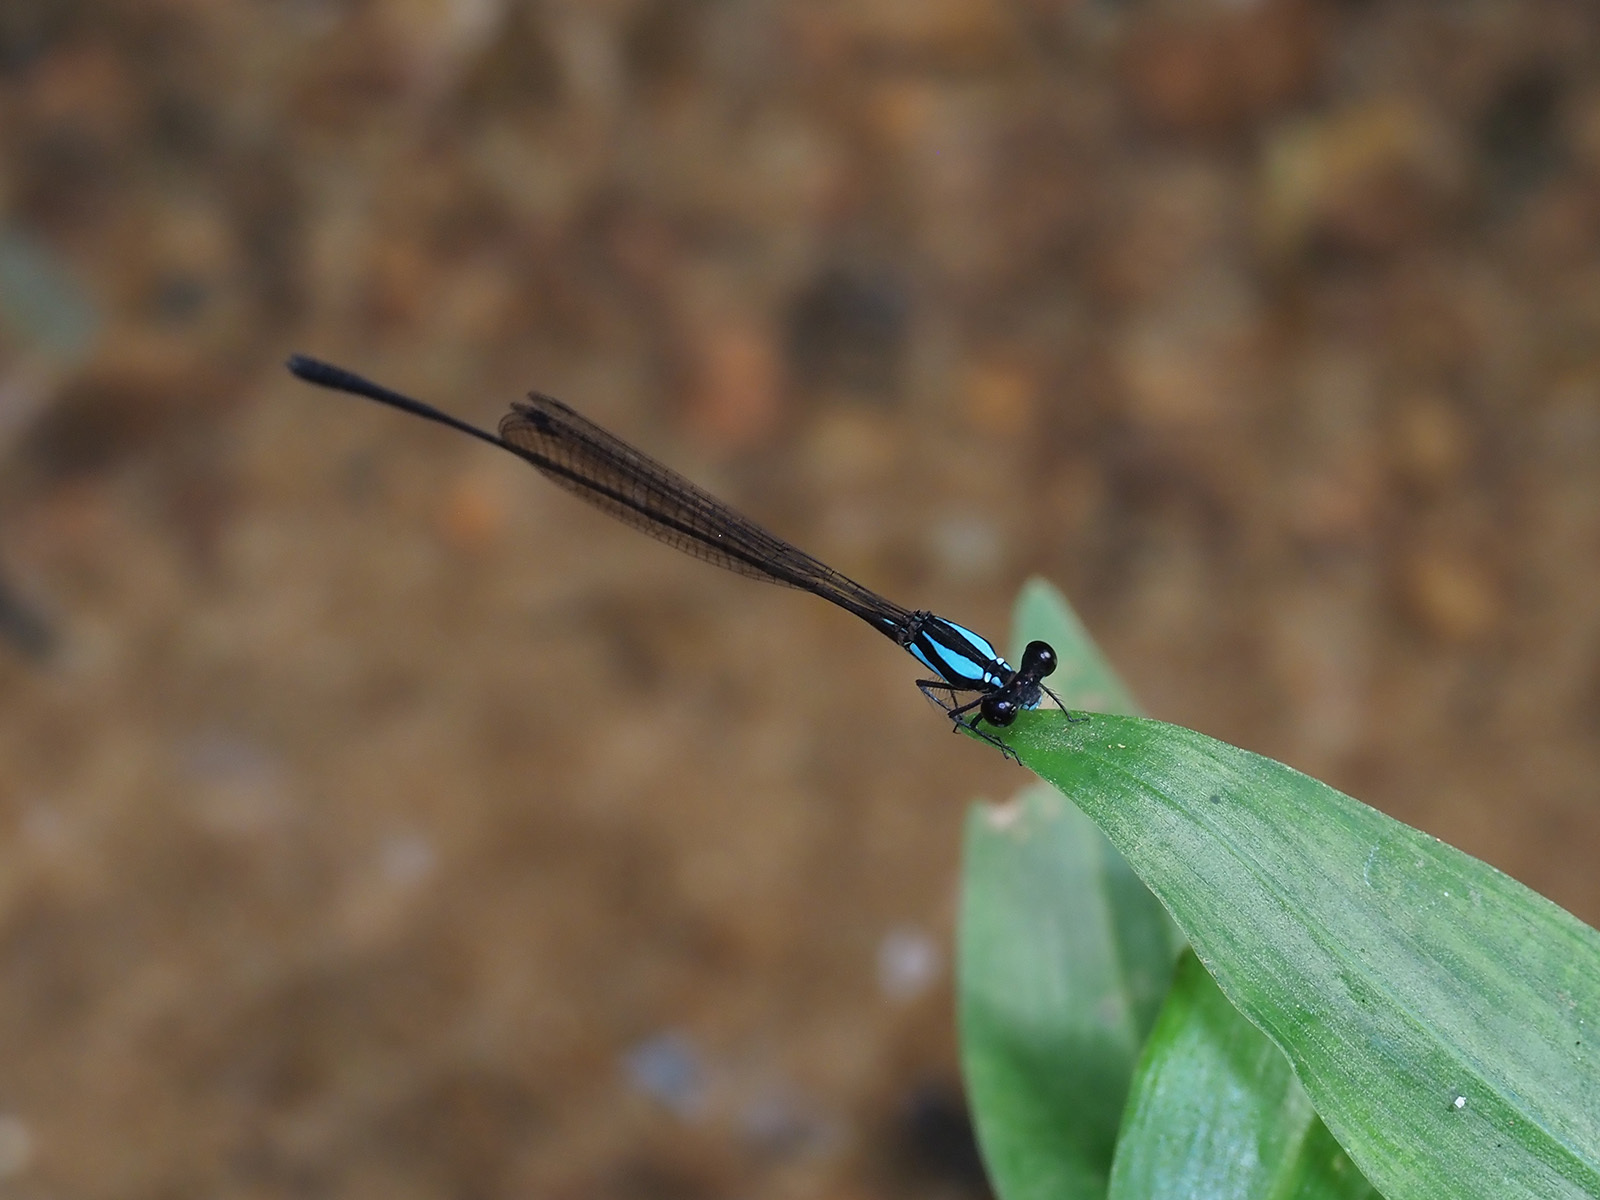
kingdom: Animalia
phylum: Arthropoda
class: Insecta
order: Odonata
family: Platycnemididae
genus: Prodasineura
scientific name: Prodasineura notostigma
